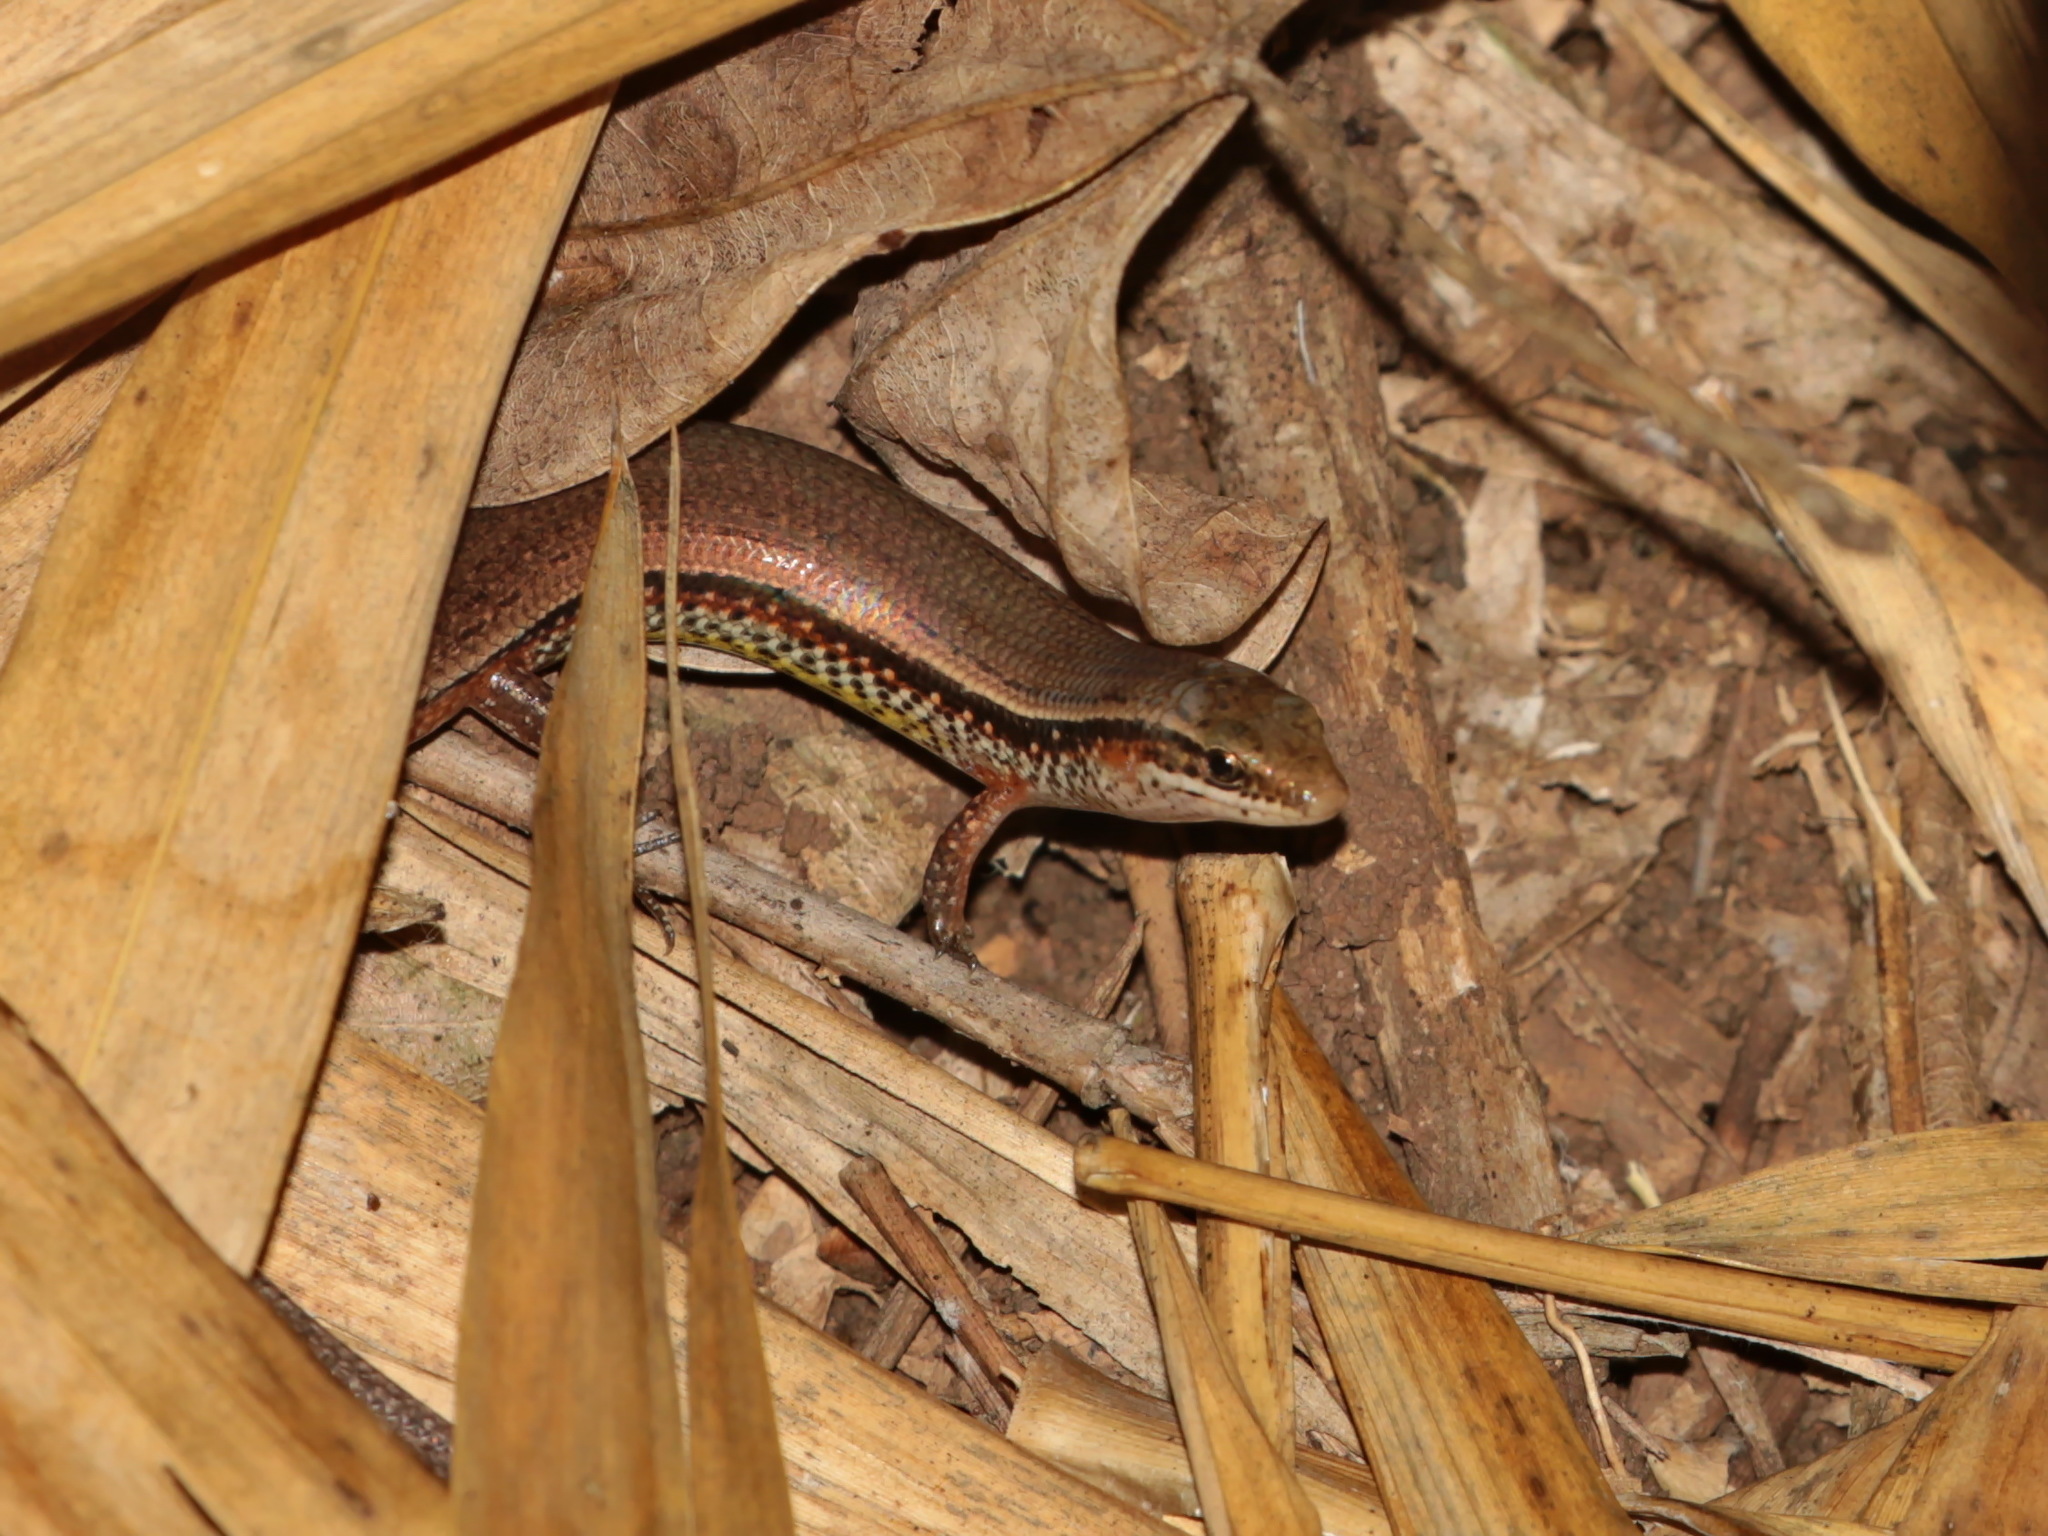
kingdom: Animalia
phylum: Chordata
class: Squamata
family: Scincidae
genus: Subdoluseps
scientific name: Subdoluseps bowringii
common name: Christmas island grass-skink
